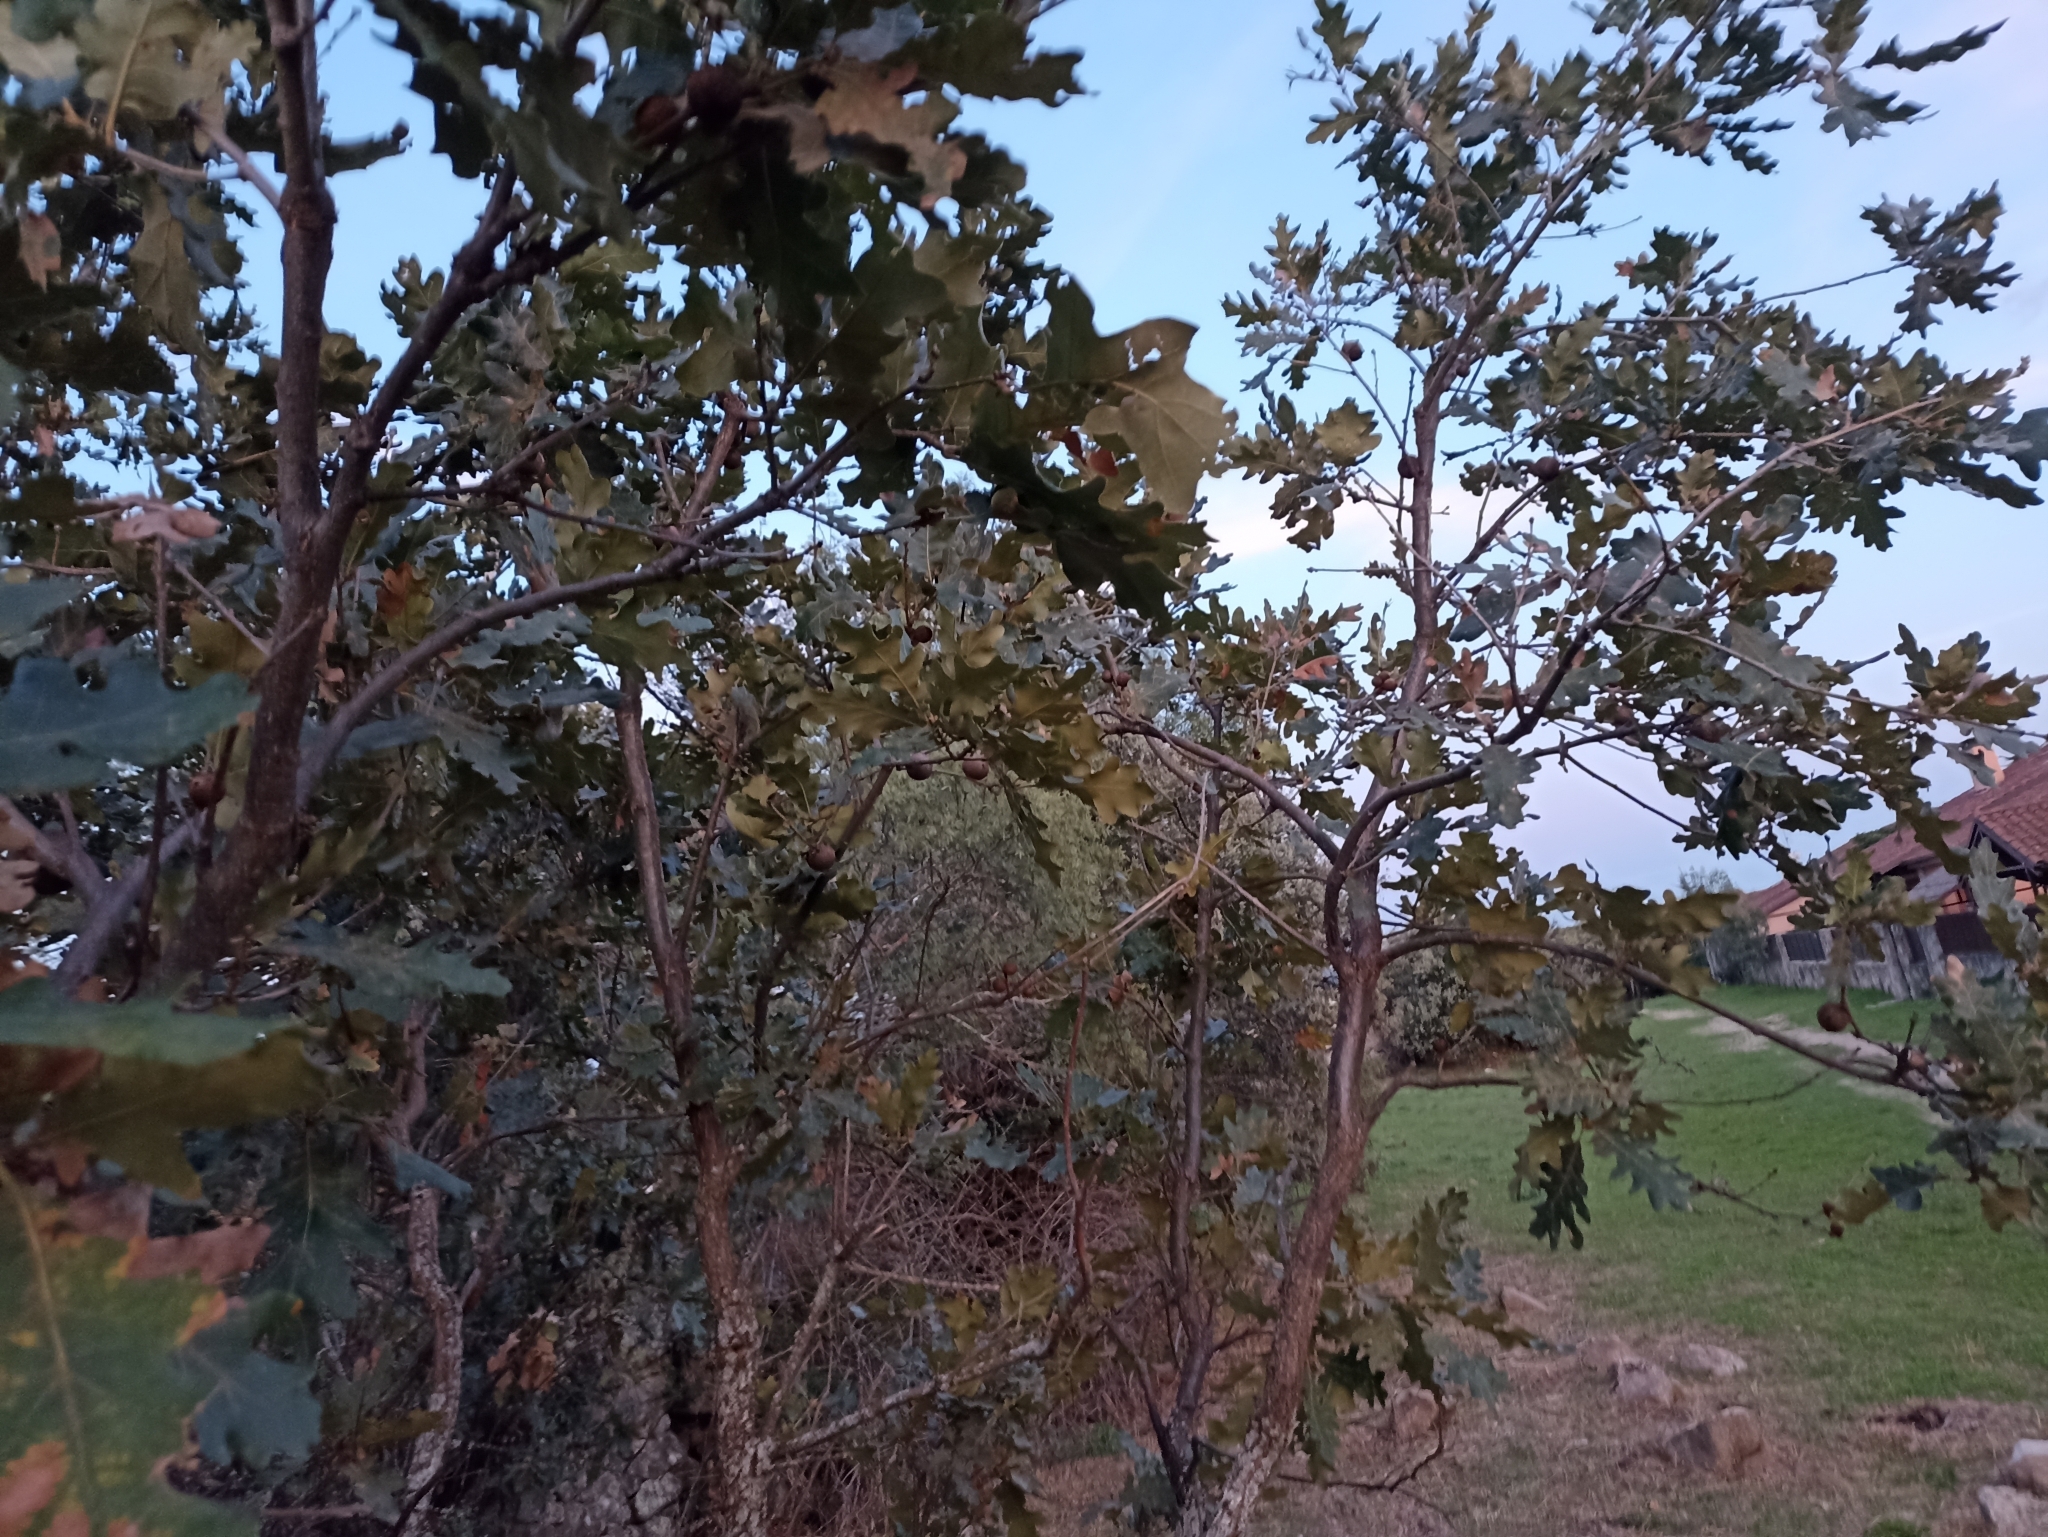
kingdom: Plantae
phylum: Tracheophyta
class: Magnoliopsida
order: Fagales
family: Fagaceae
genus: Quercus
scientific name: Quercus pyrenaica
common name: Pyrenean oak
